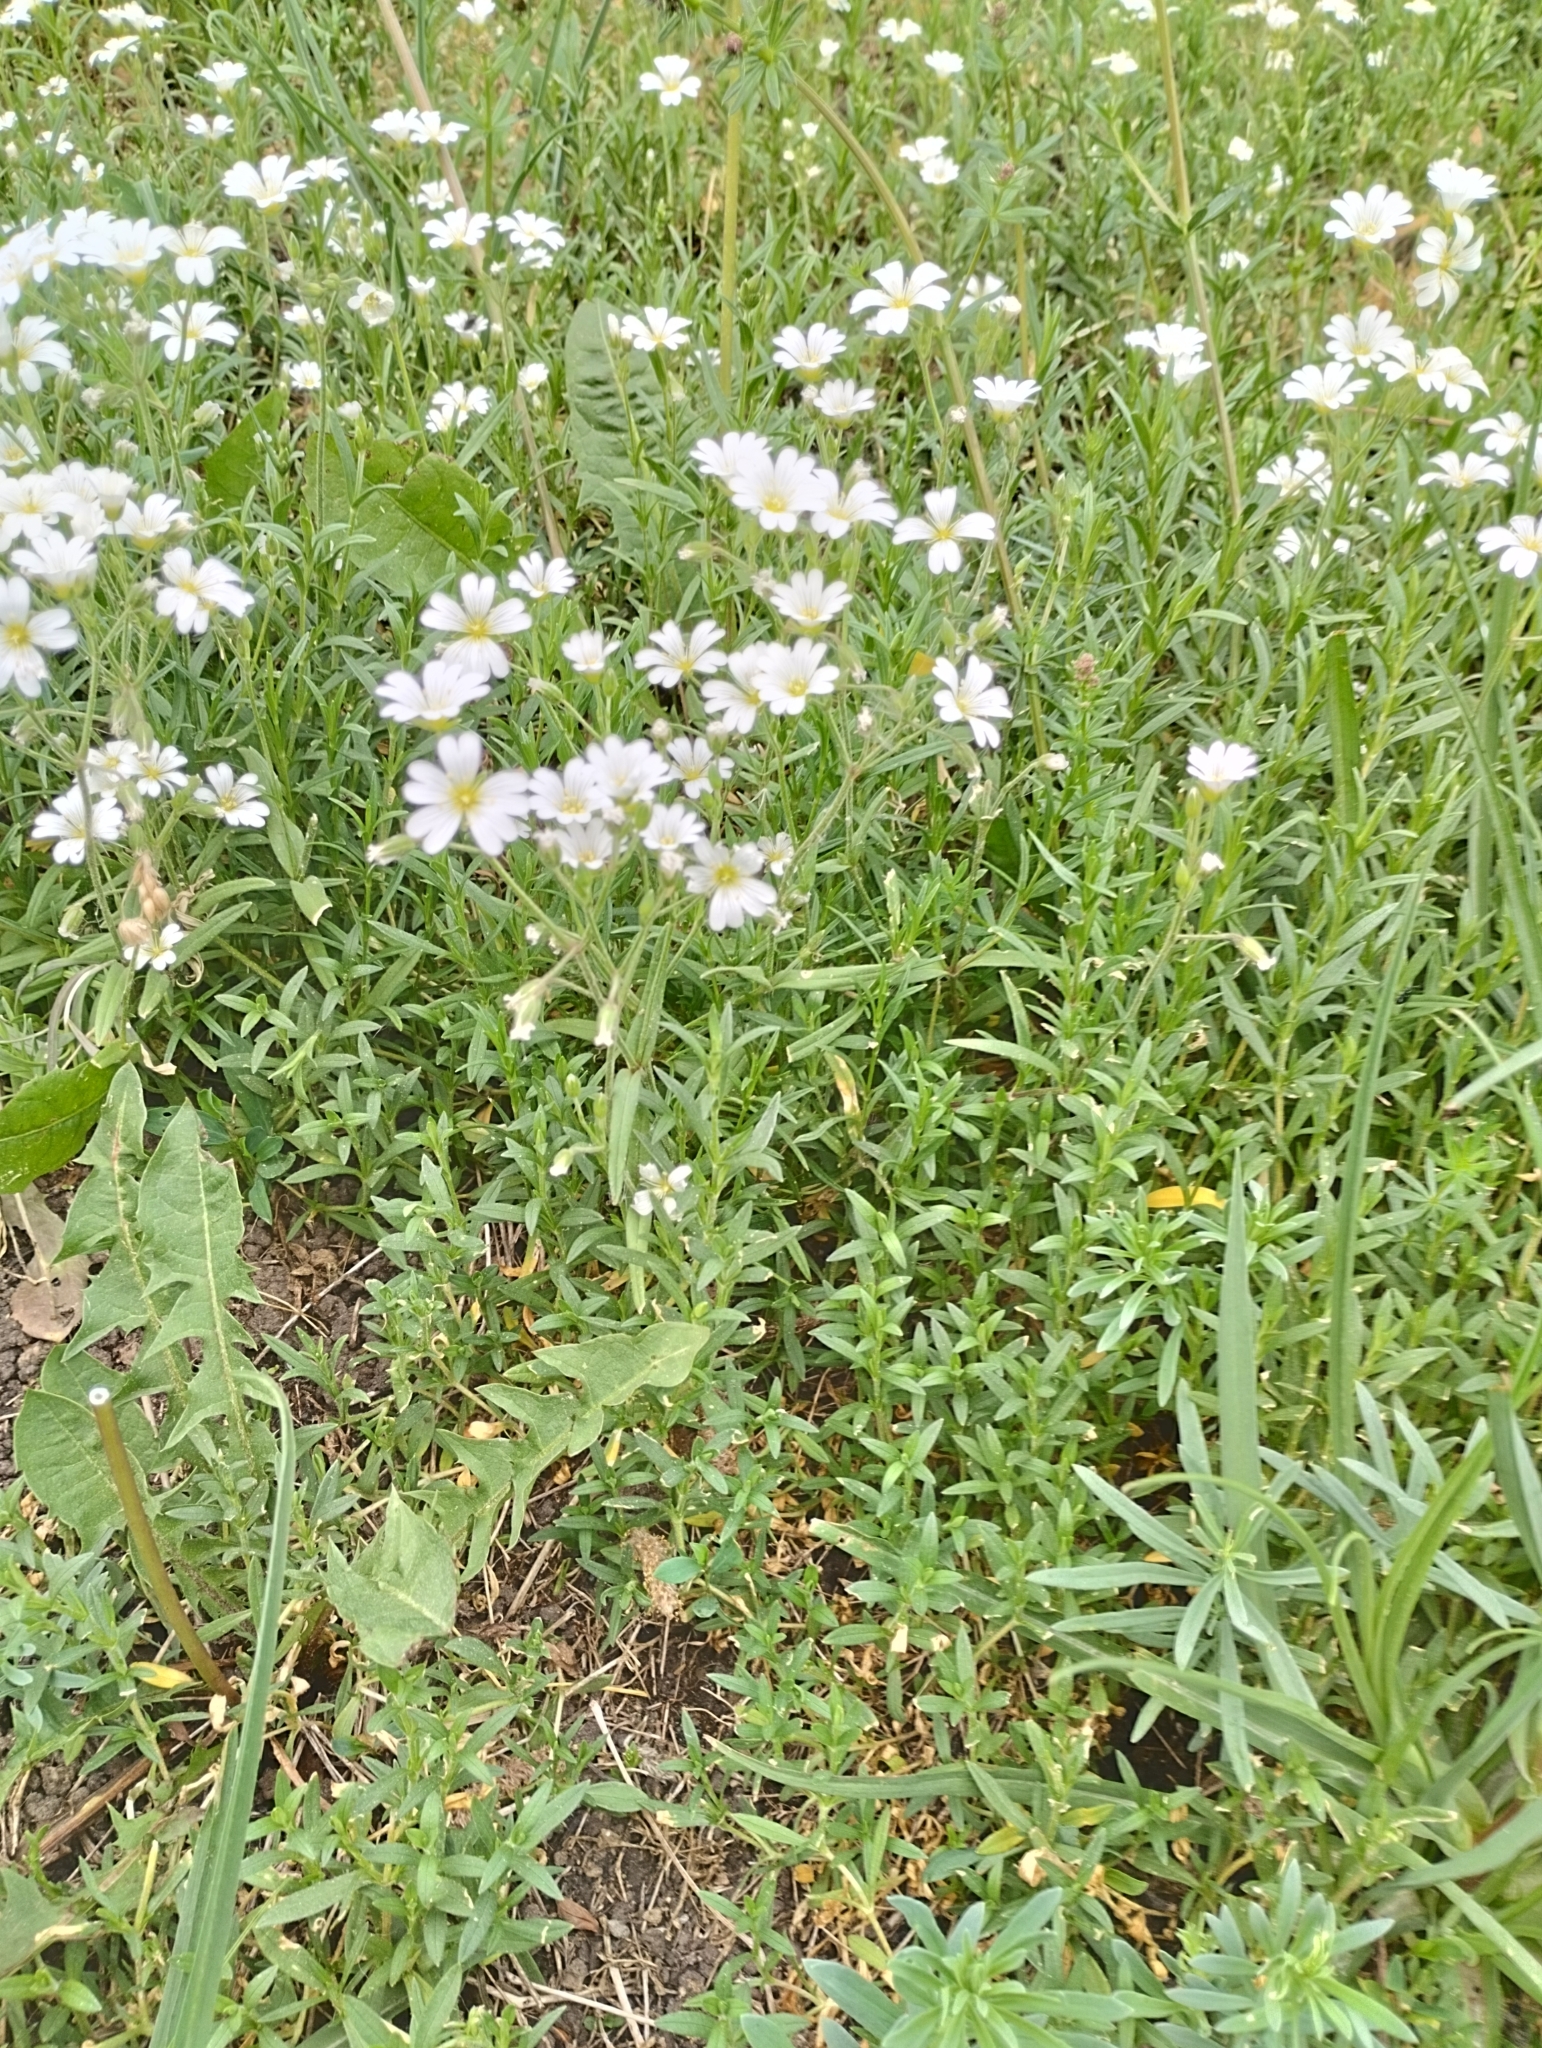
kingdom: Plantae
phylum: Tracheophyta
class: Magnoliopsida
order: Caryophyllales
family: Caryophyllaceae
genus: Cerastium
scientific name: Cerastium arvense
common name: Field mouse-ear
